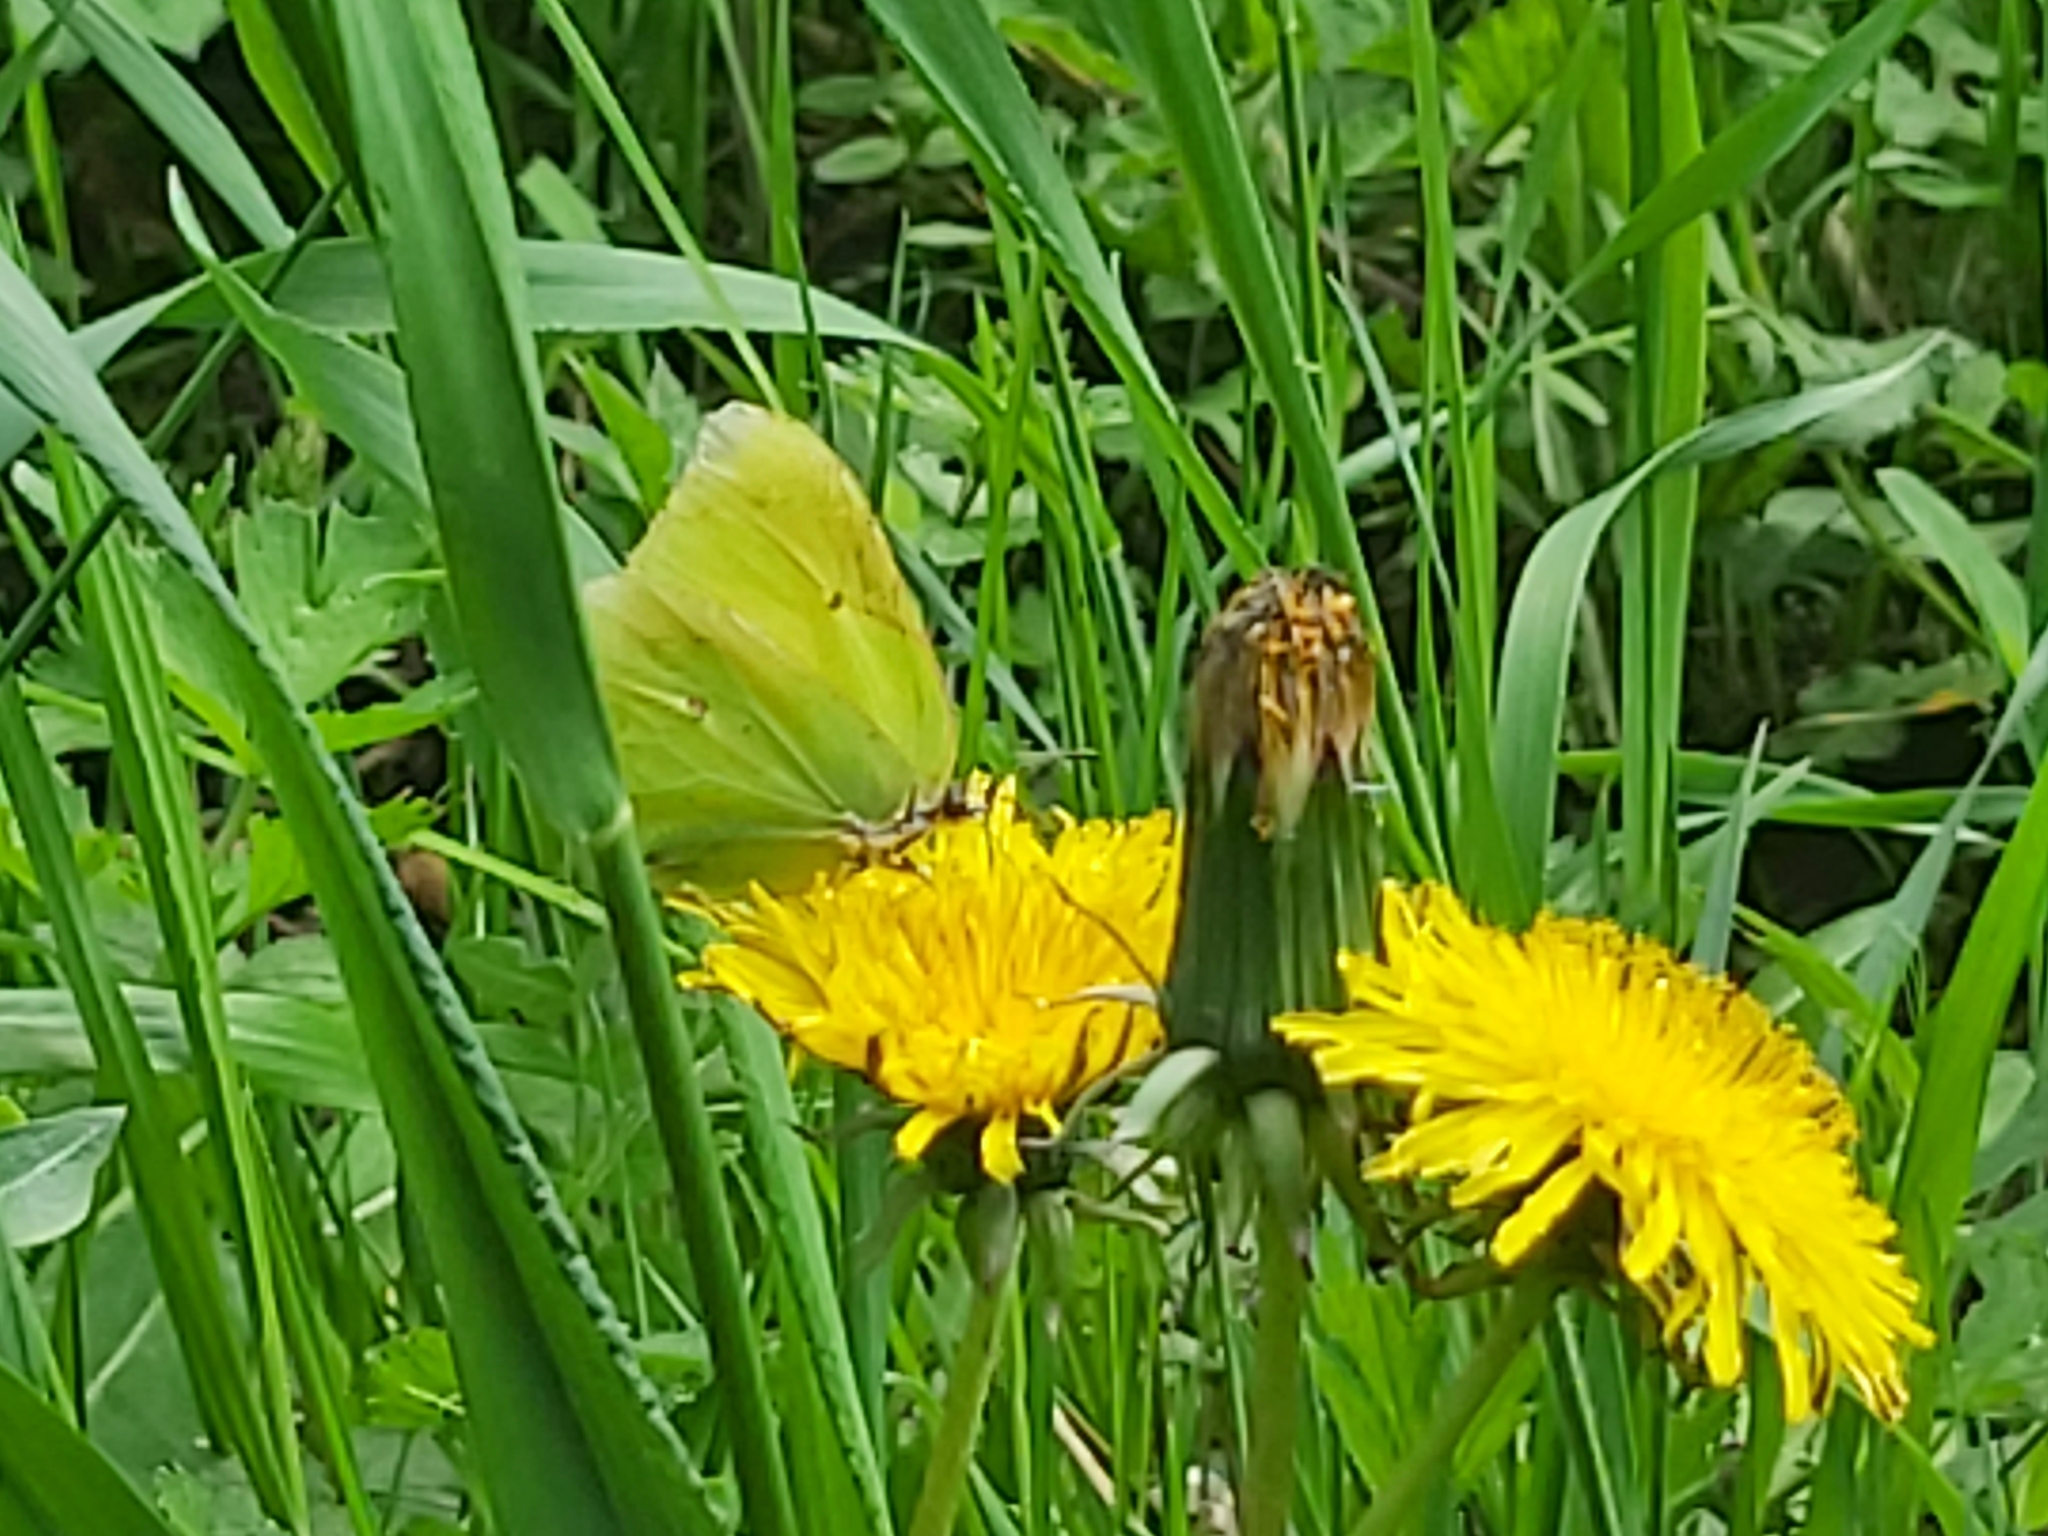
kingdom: Animalia
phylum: Arthropoda
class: Insecta
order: Lepidoptera
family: Pieridae
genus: Gonepteryx
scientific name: Gonepteryx rhamni
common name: Brimstone
